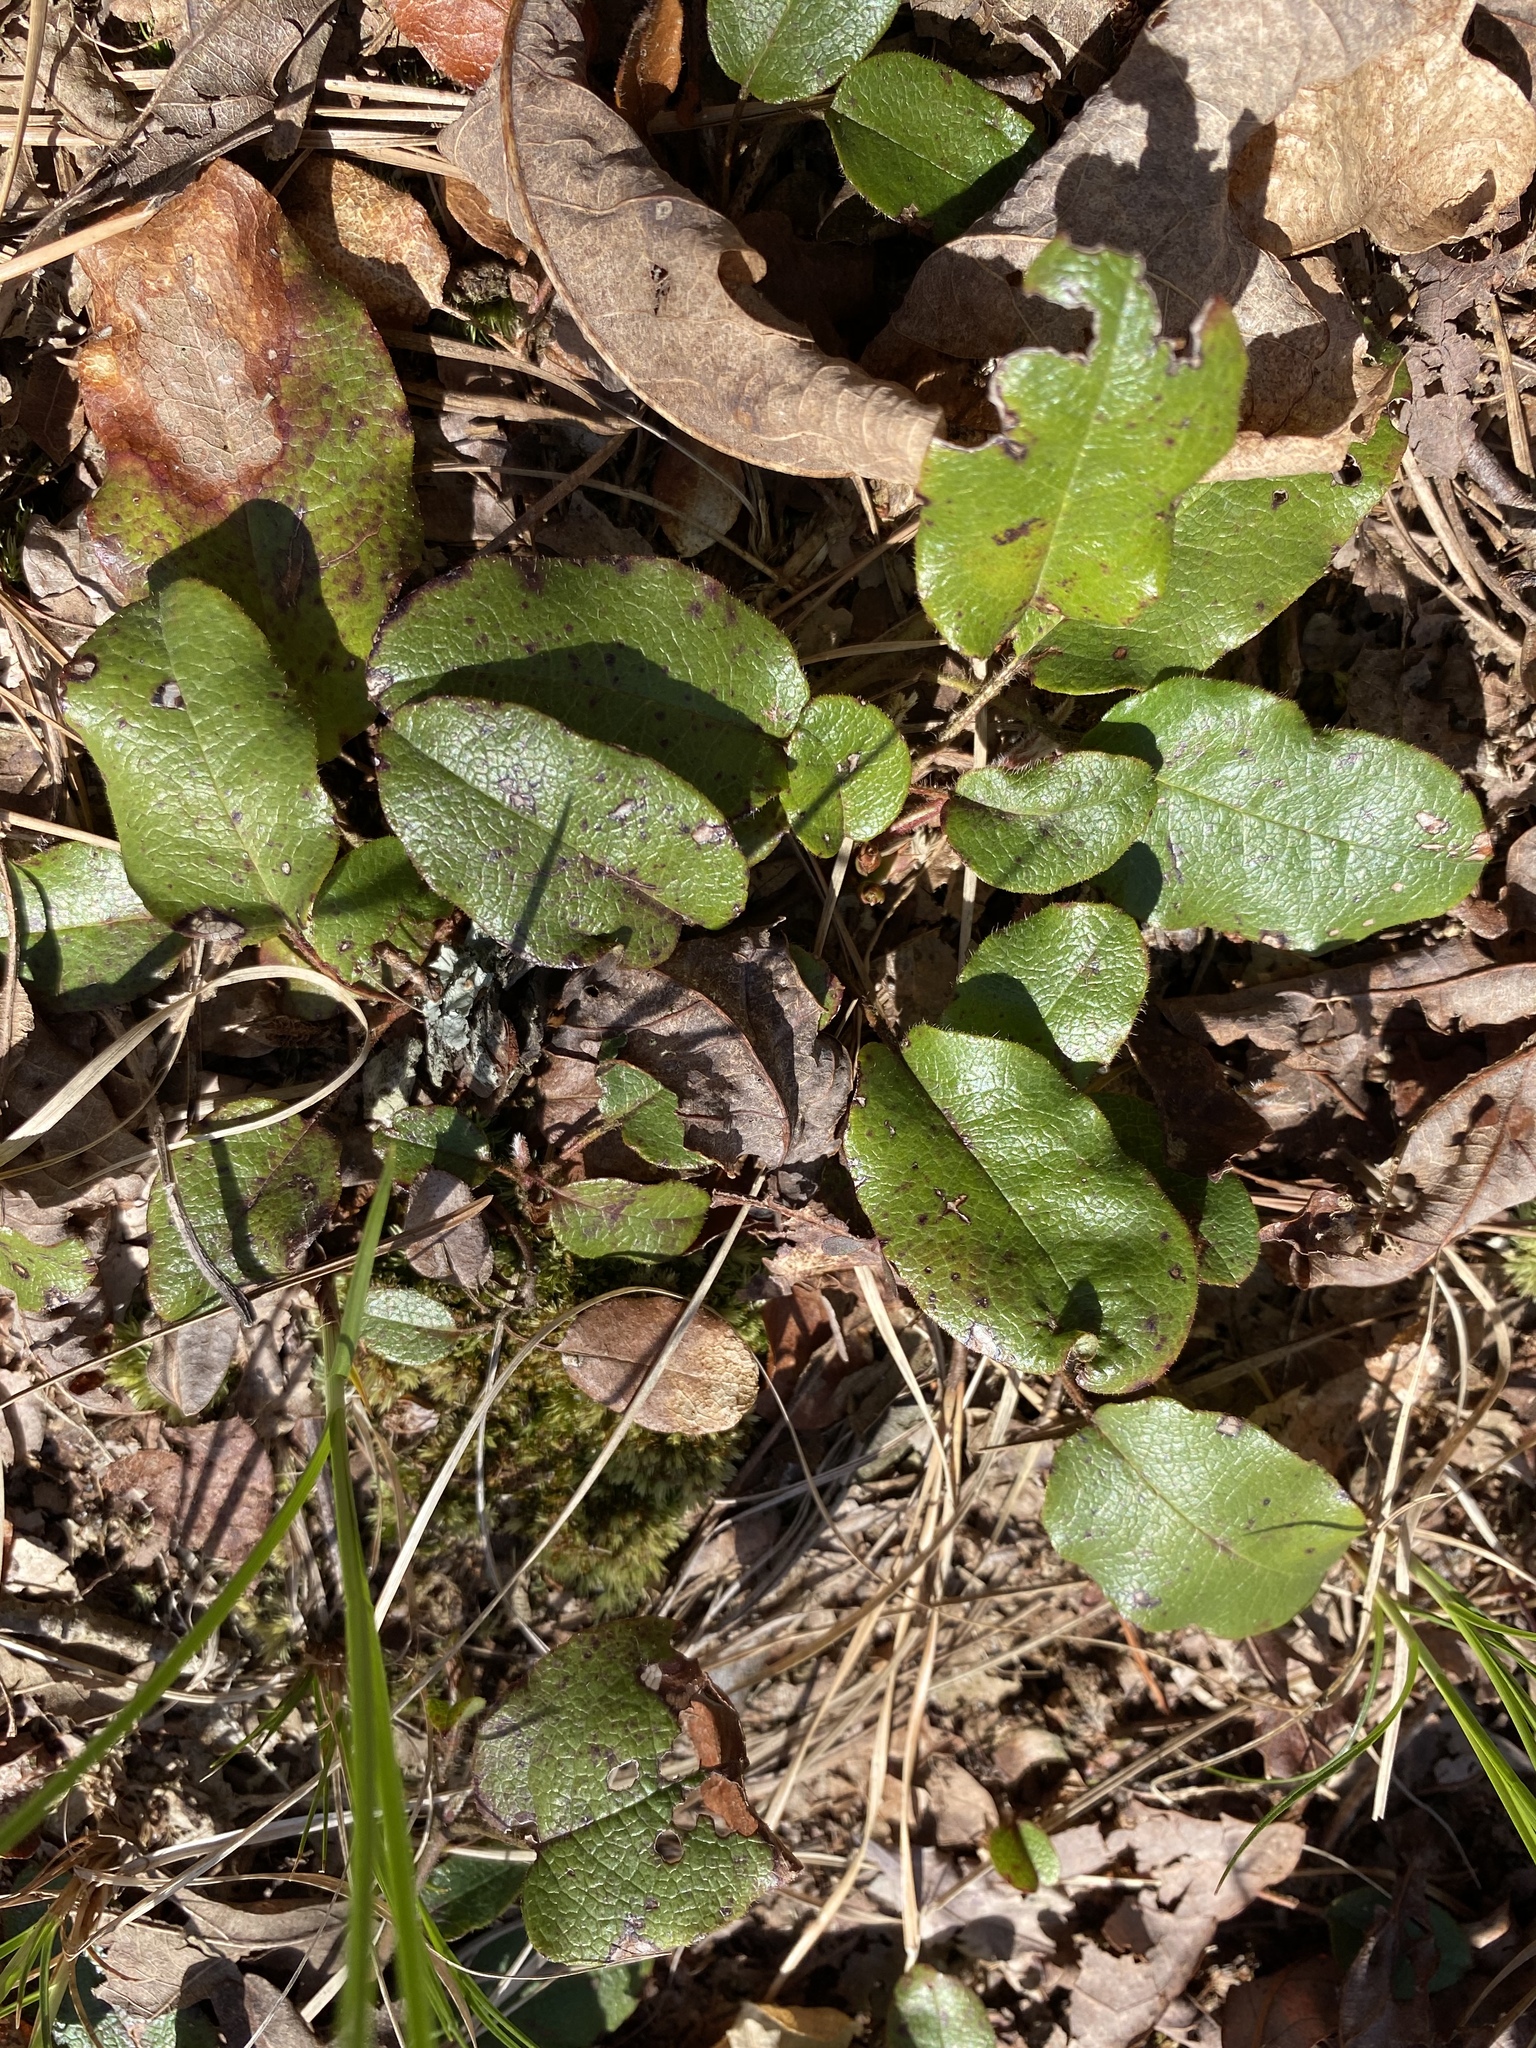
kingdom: Plantae
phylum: Tracheophyta
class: Magnoliopsida
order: Ericales
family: Ericaceae
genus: Epigaea
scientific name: Epigaea repens
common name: Gravelroot
